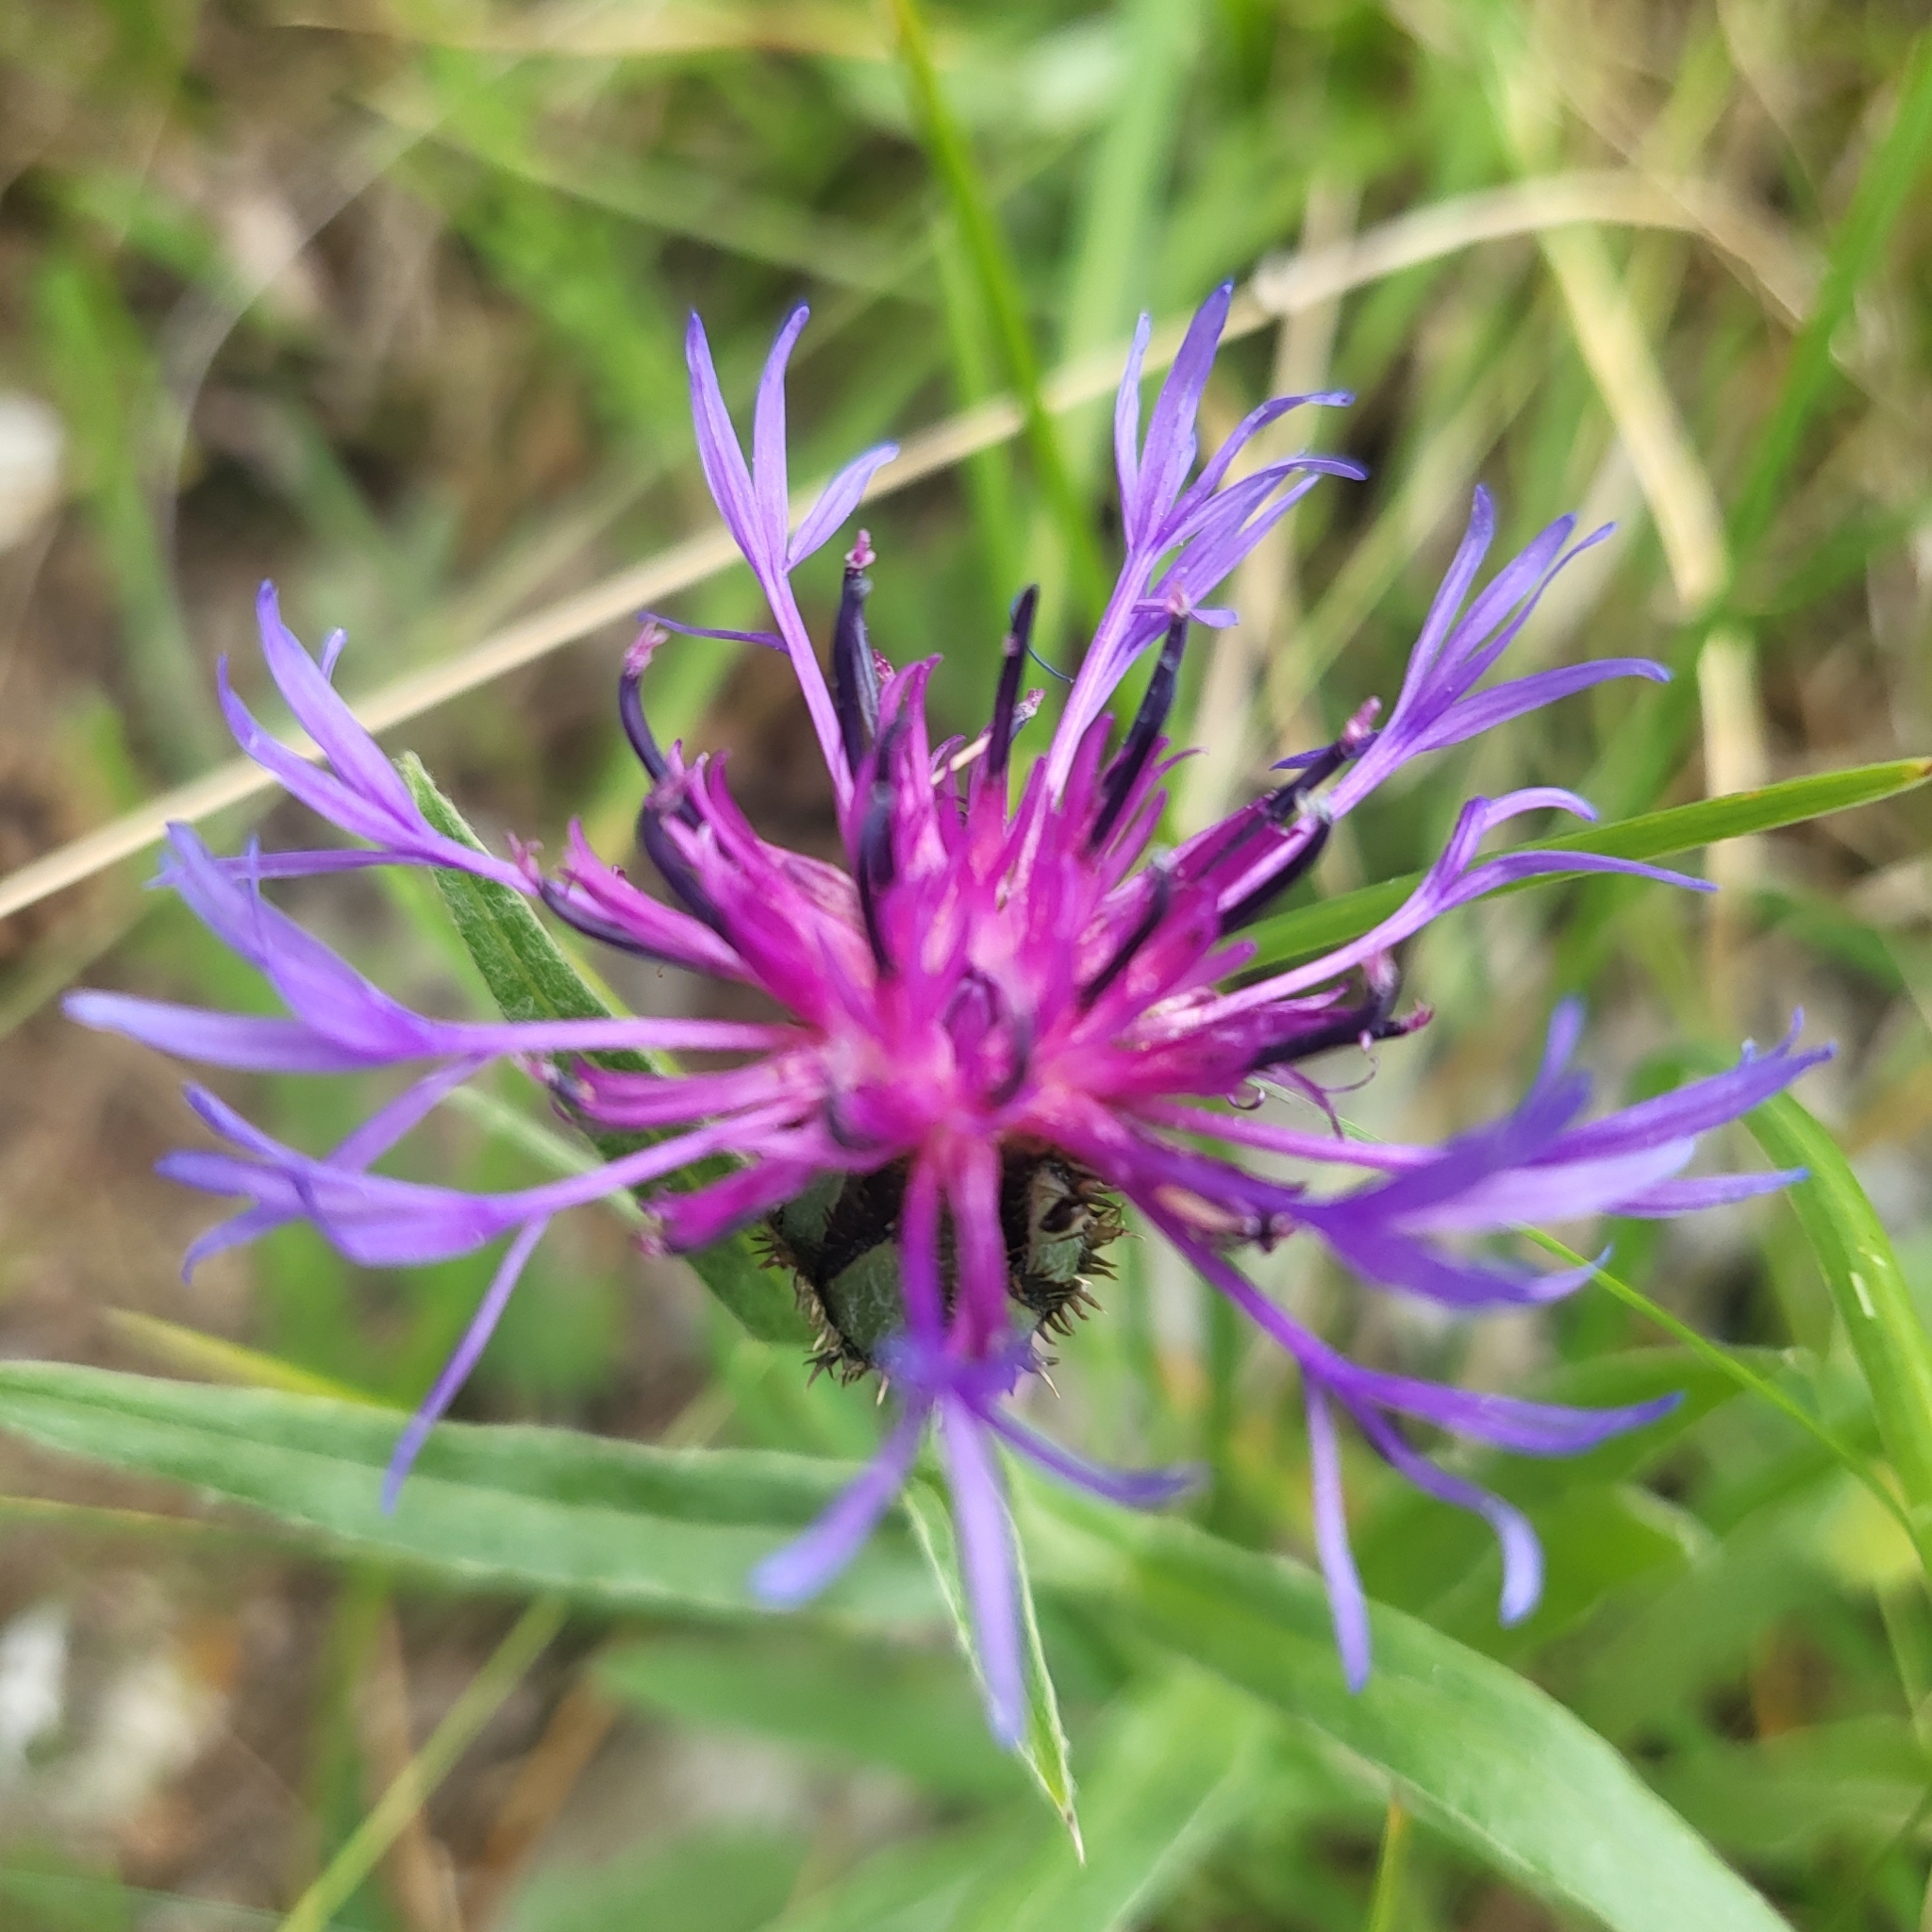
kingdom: Plantae
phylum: Tracheophyta
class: Magnoliopsida
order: Asterales
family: Asteraceae
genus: Centaurea
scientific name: Centaurea montana
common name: Perennial cornflower
